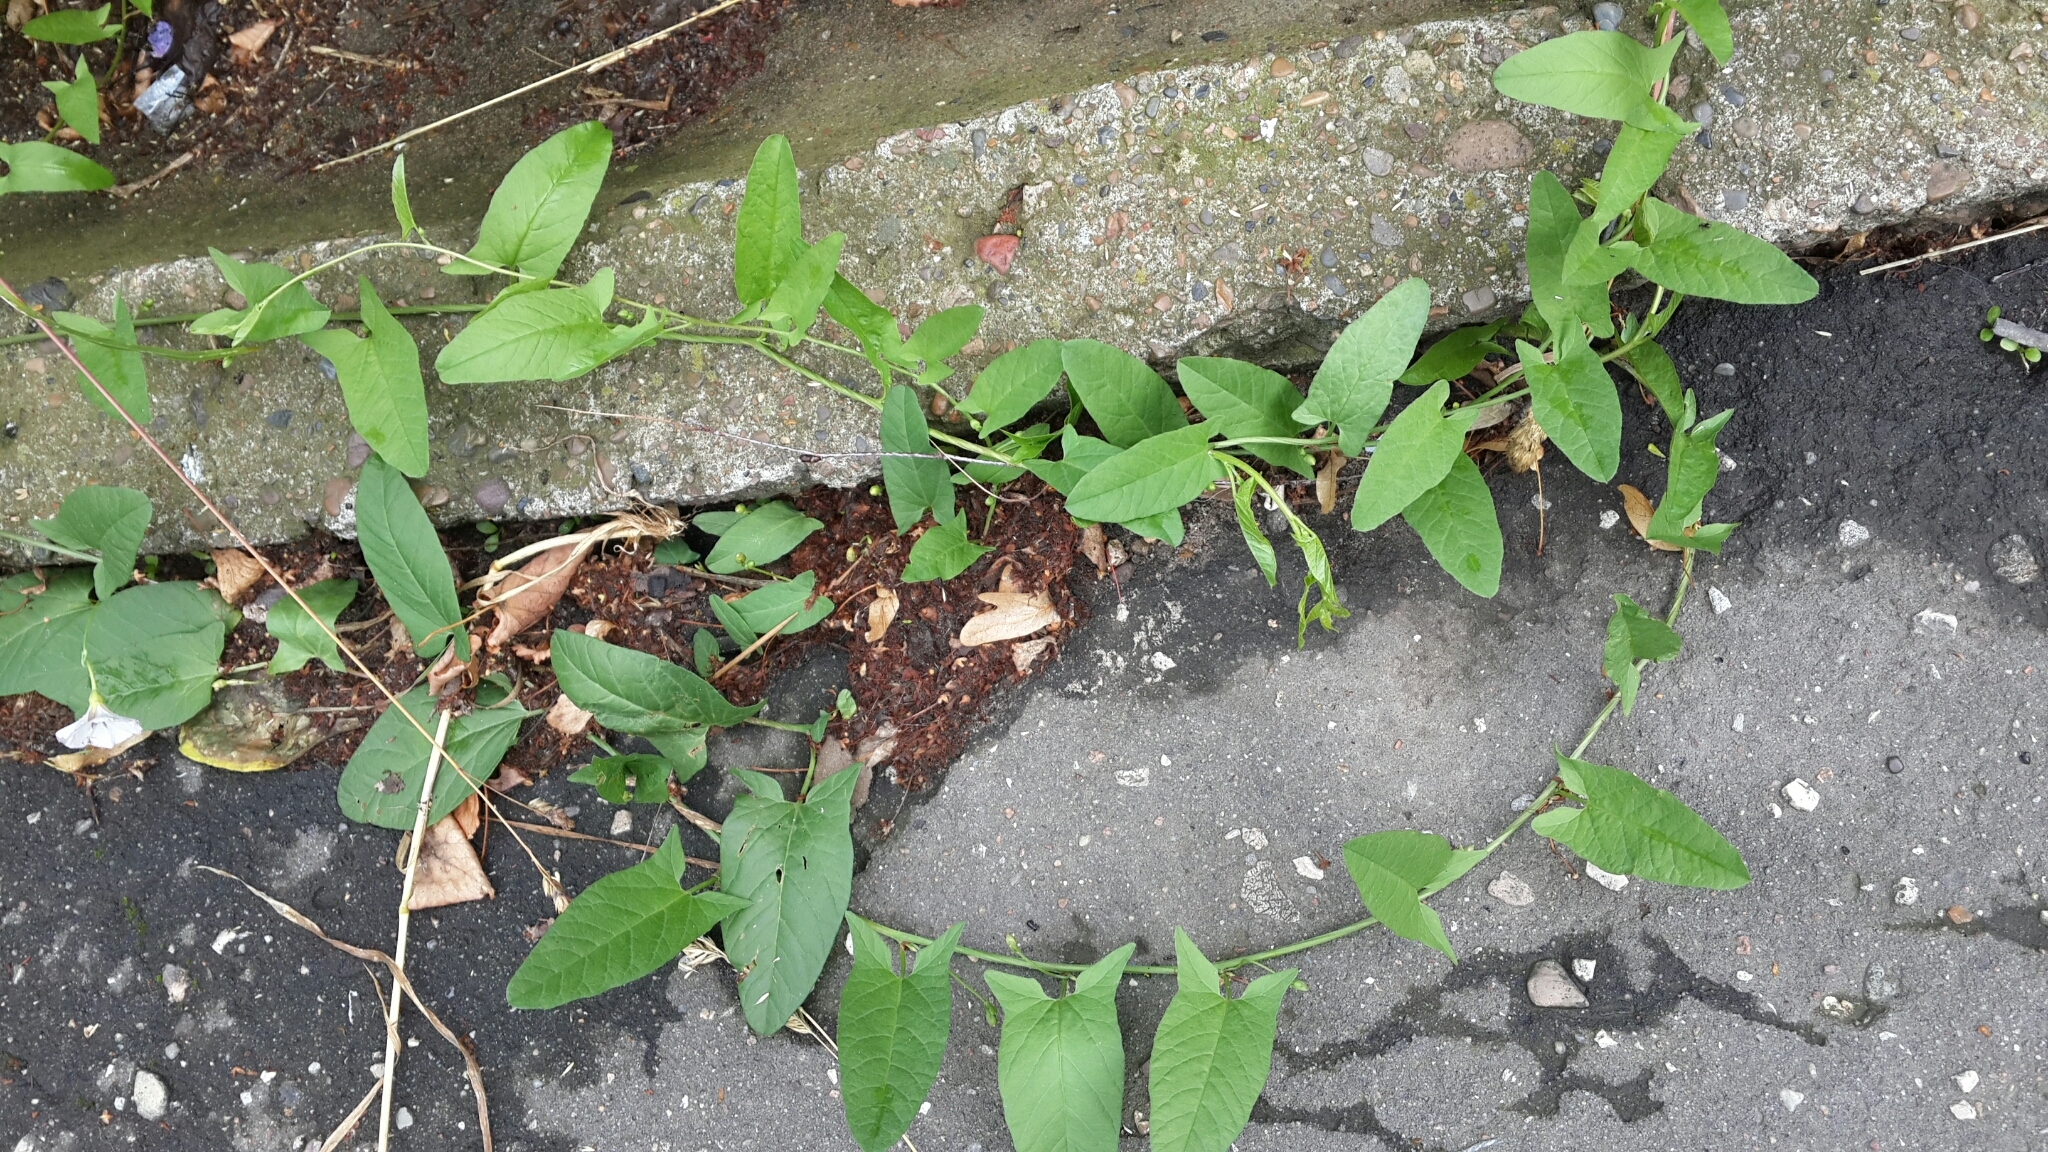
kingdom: Plantae
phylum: Tracheophyta
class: Magnoliopsida
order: Solanales
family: Convolvulaceae
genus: Convolvulus
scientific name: Convolvulus arvensis
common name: Field bindweed
